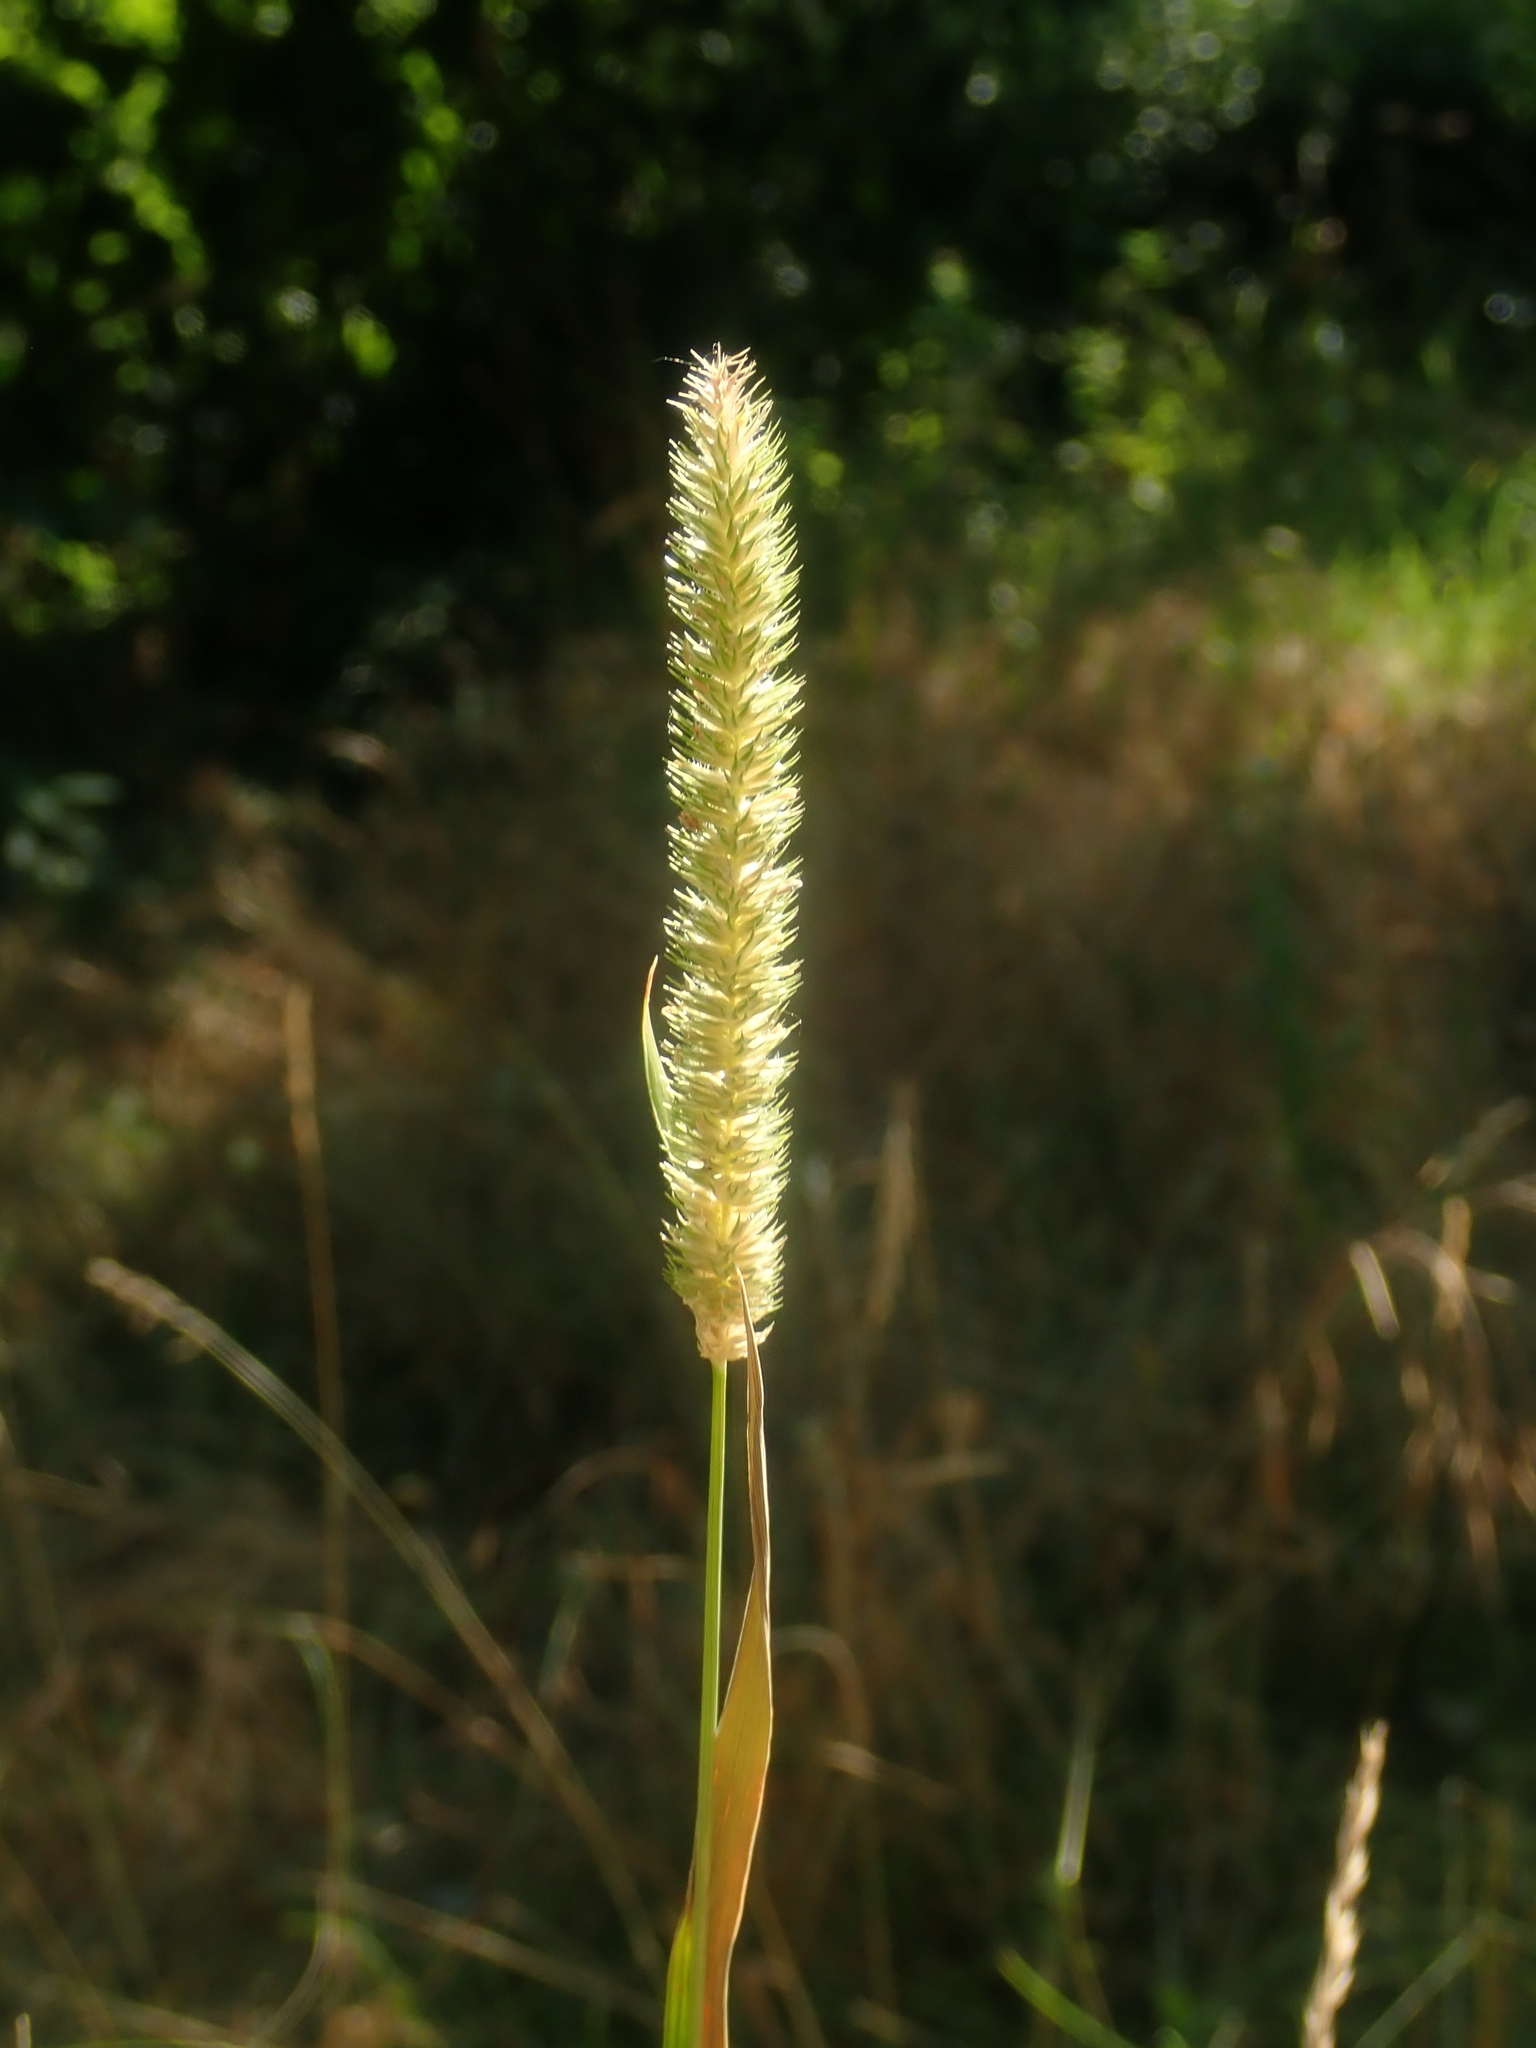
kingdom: Plantae
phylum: Tracheophyta
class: Liliopsida
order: Poales
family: Poaceae
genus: Phleum
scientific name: Phleum pratense
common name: Timothy grass
